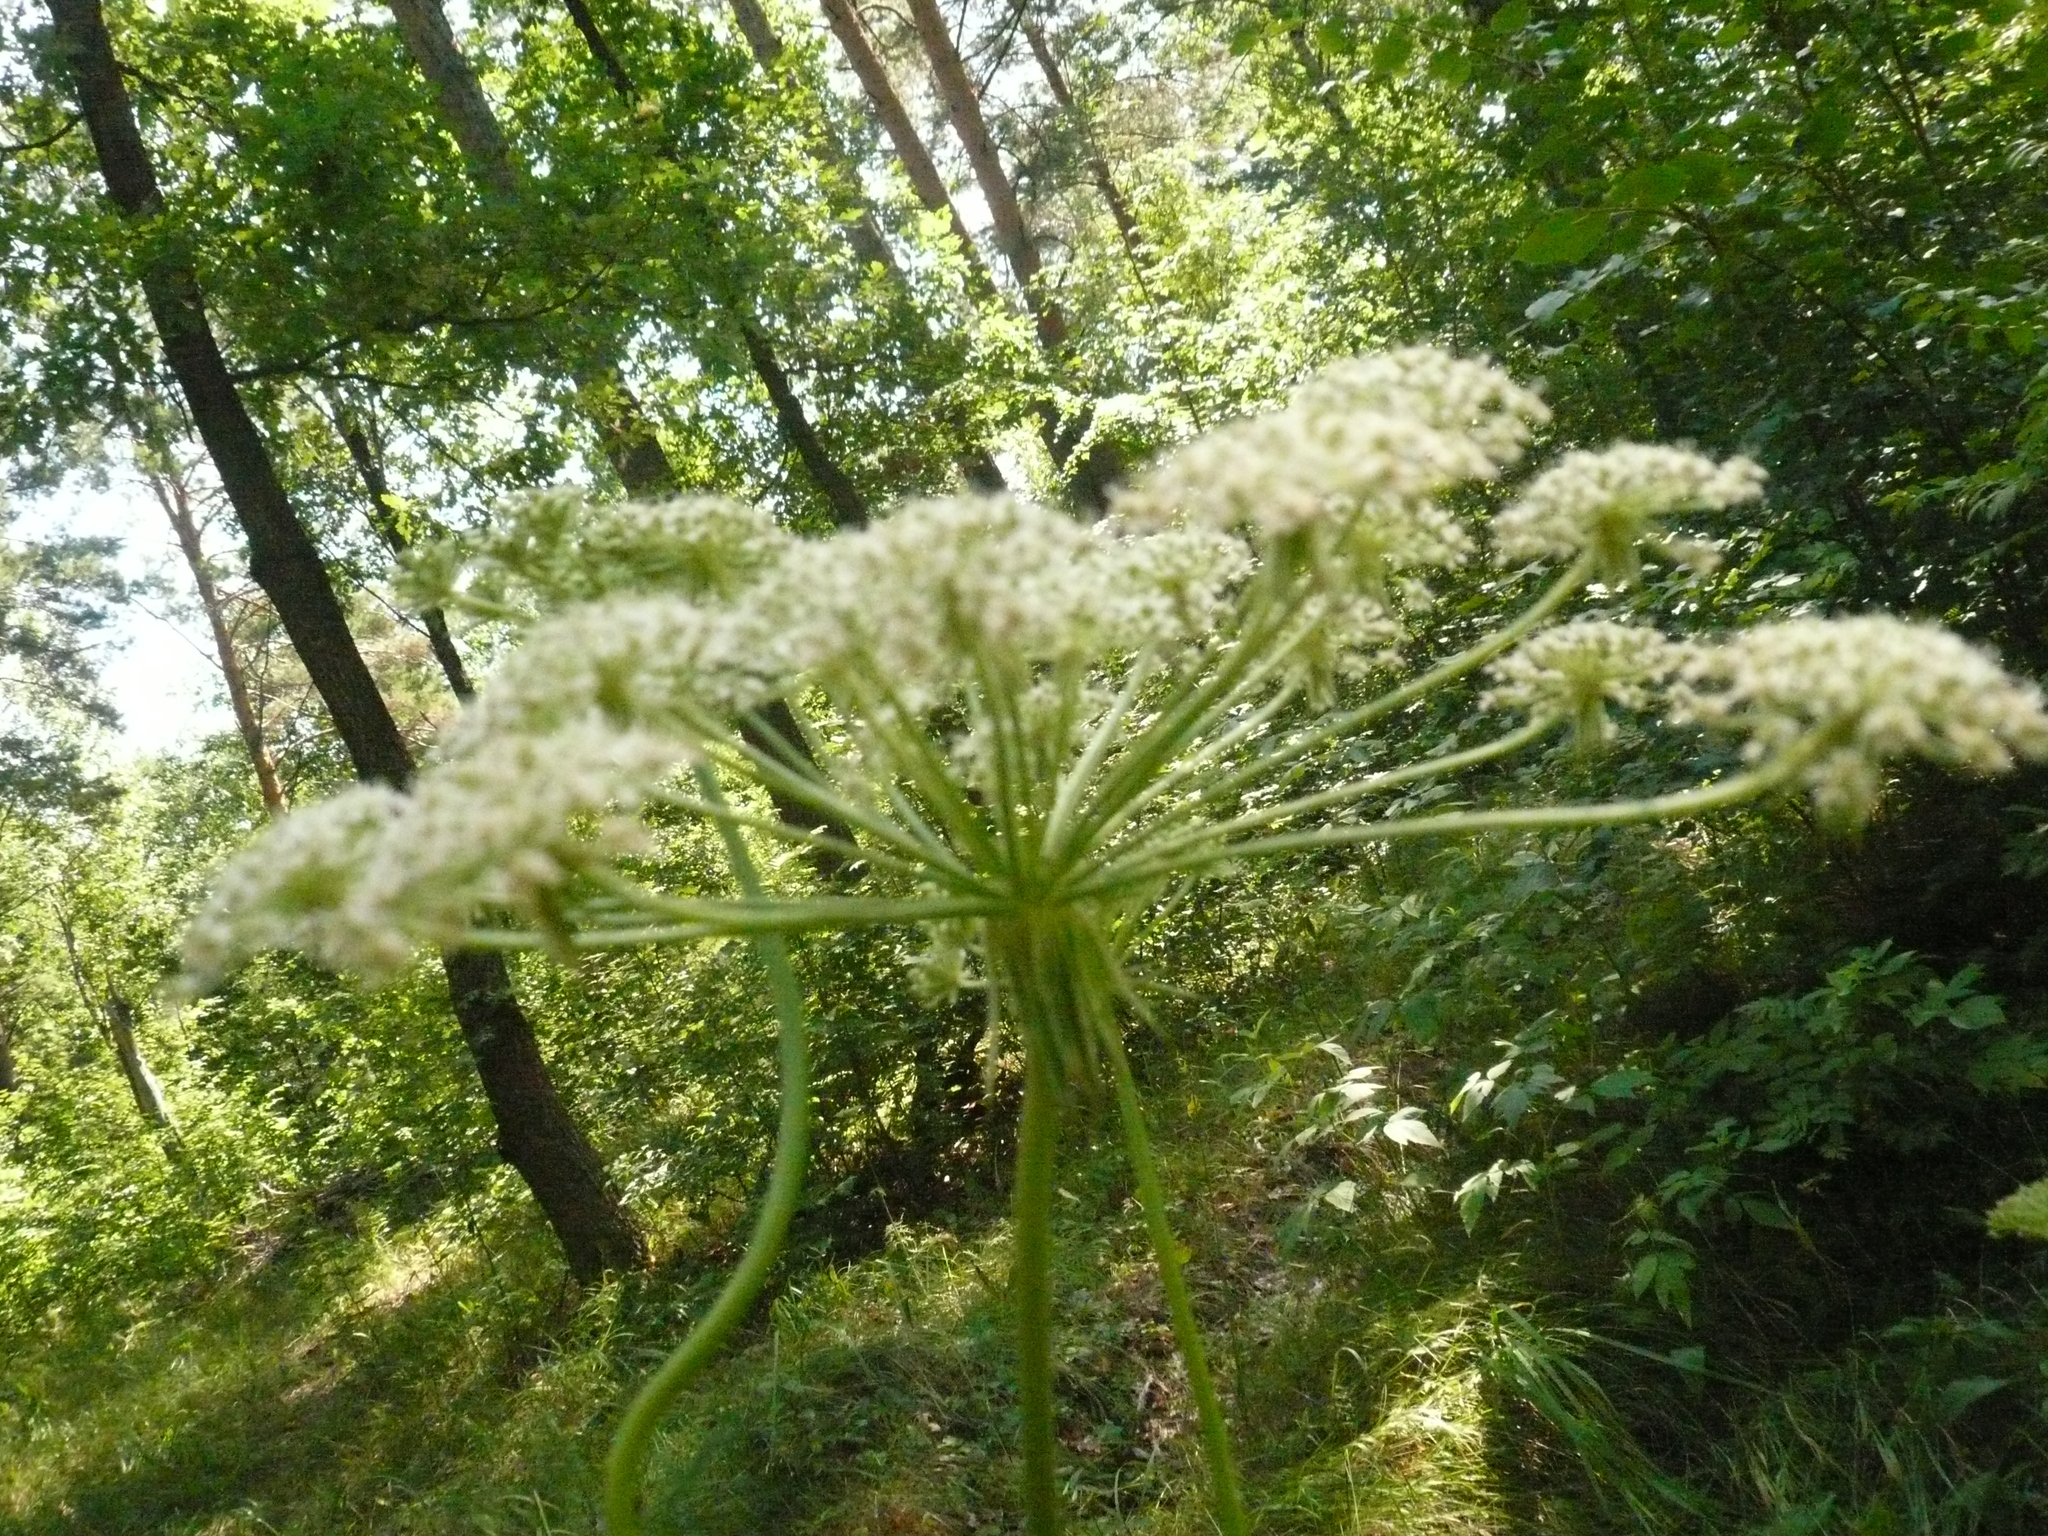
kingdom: Plantae
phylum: Tracheophyta
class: Magnoliopsida
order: Apiales
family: Apiaceae
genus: Silphiodaucus
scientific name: Silphiodaucus prutenicus
